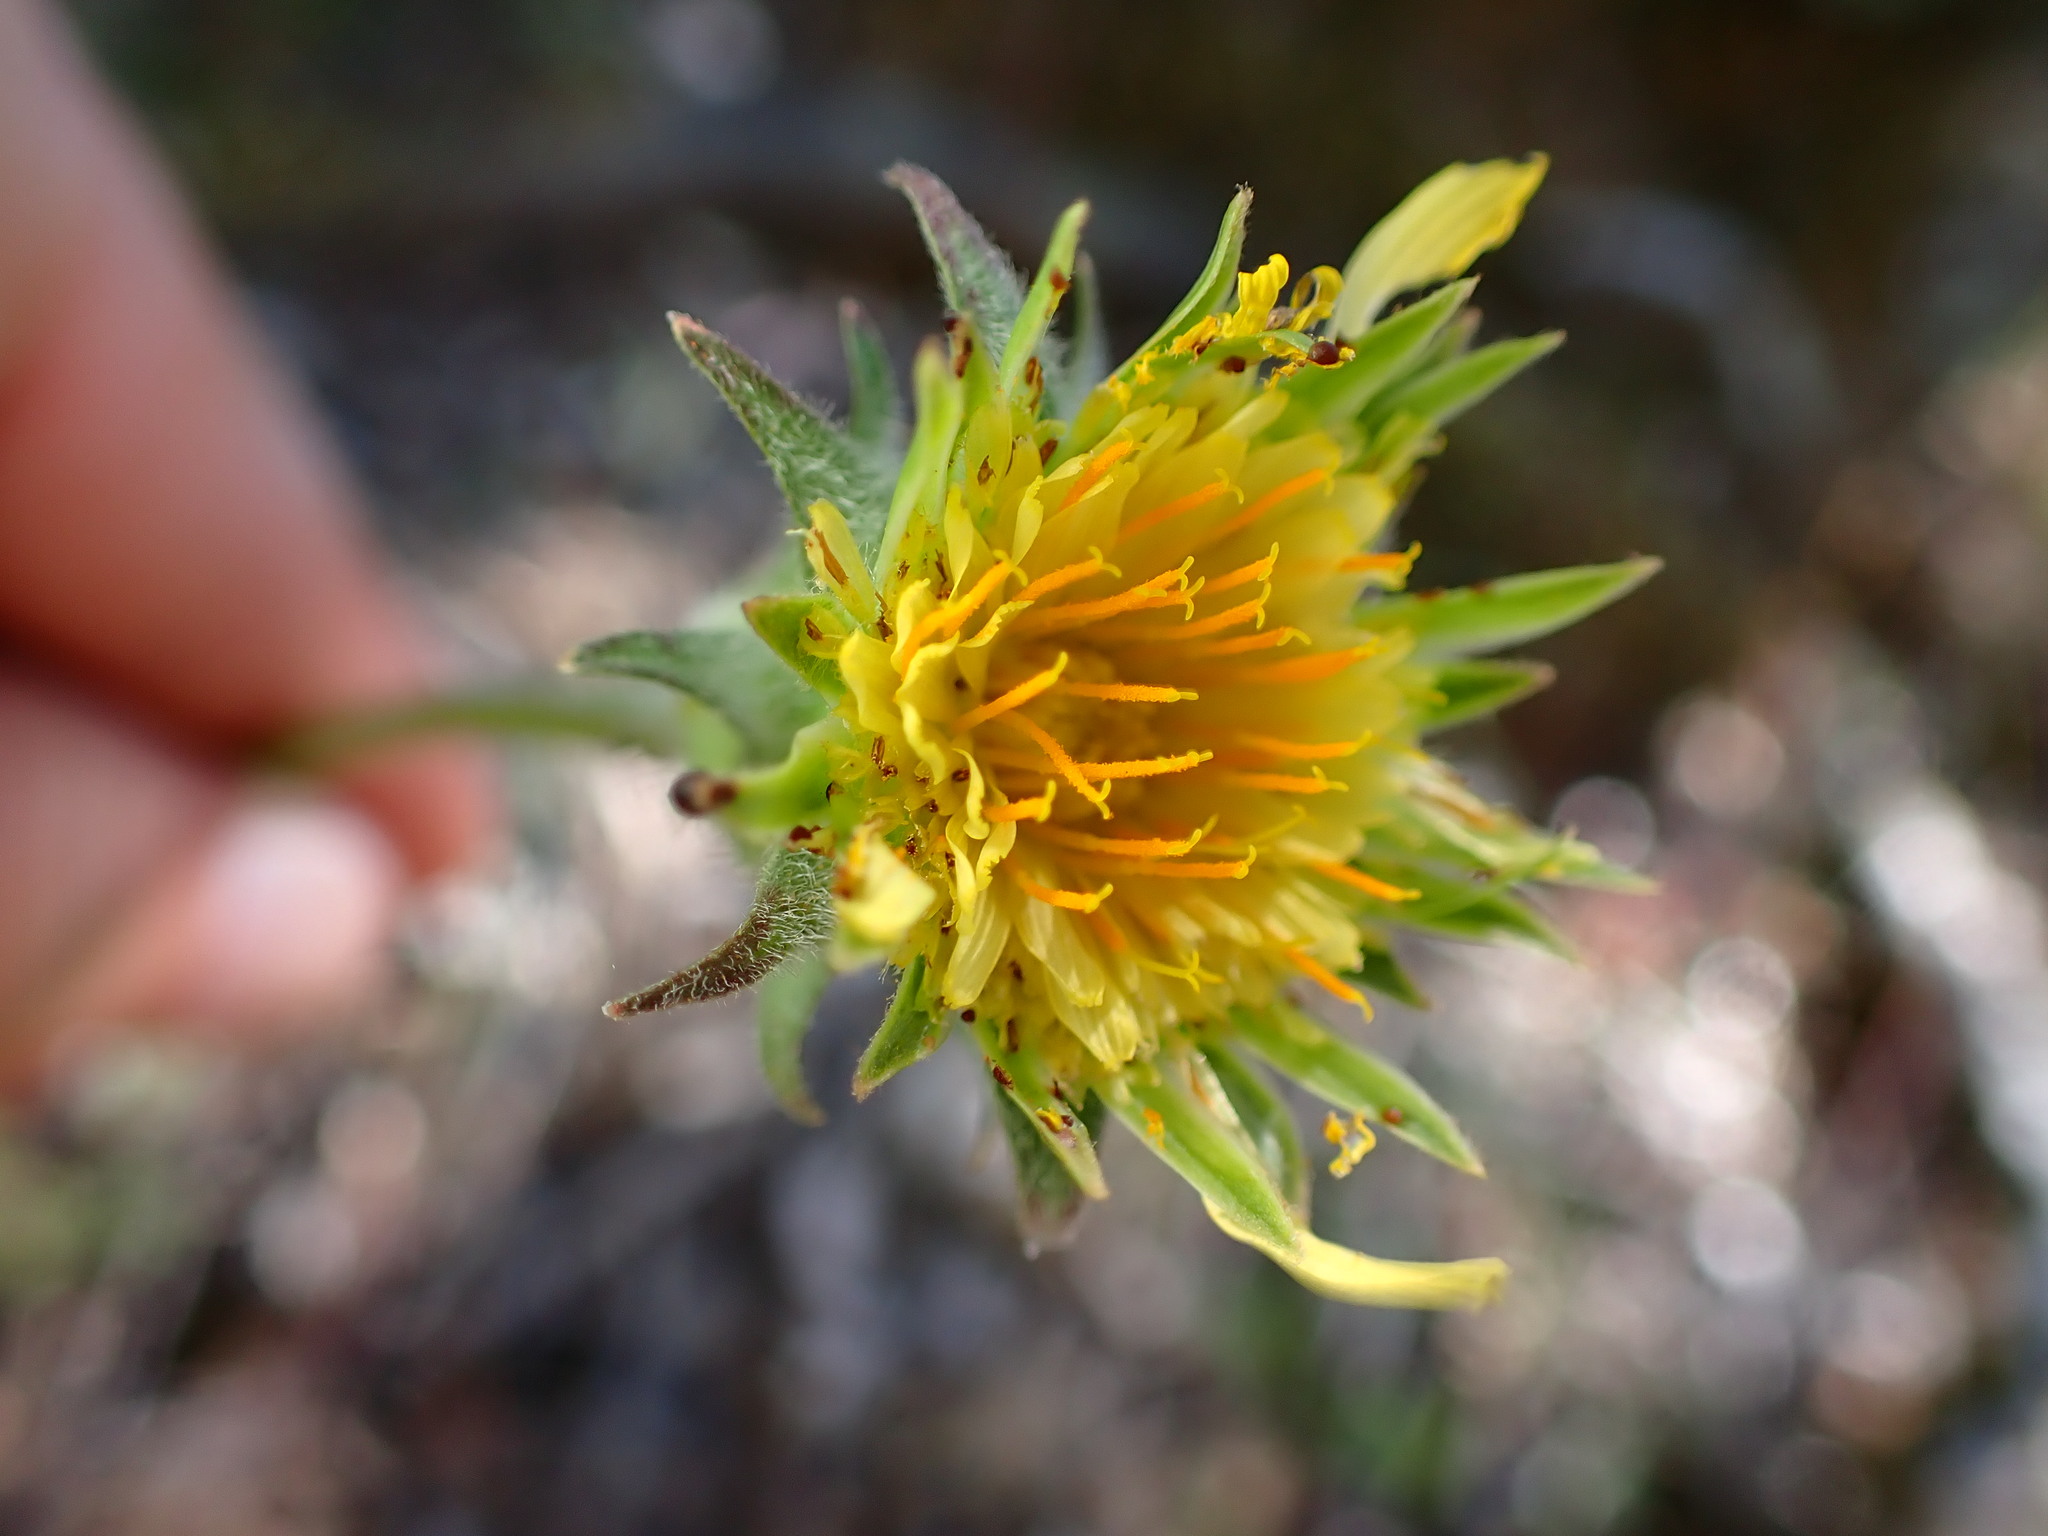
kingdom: Plantae
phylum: Tracheophyta
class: Magnoliopsida
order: Asterales
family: Asteraceae
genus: Agoseris
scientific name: Agoseris grandiflora
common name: Grassland agoseris
